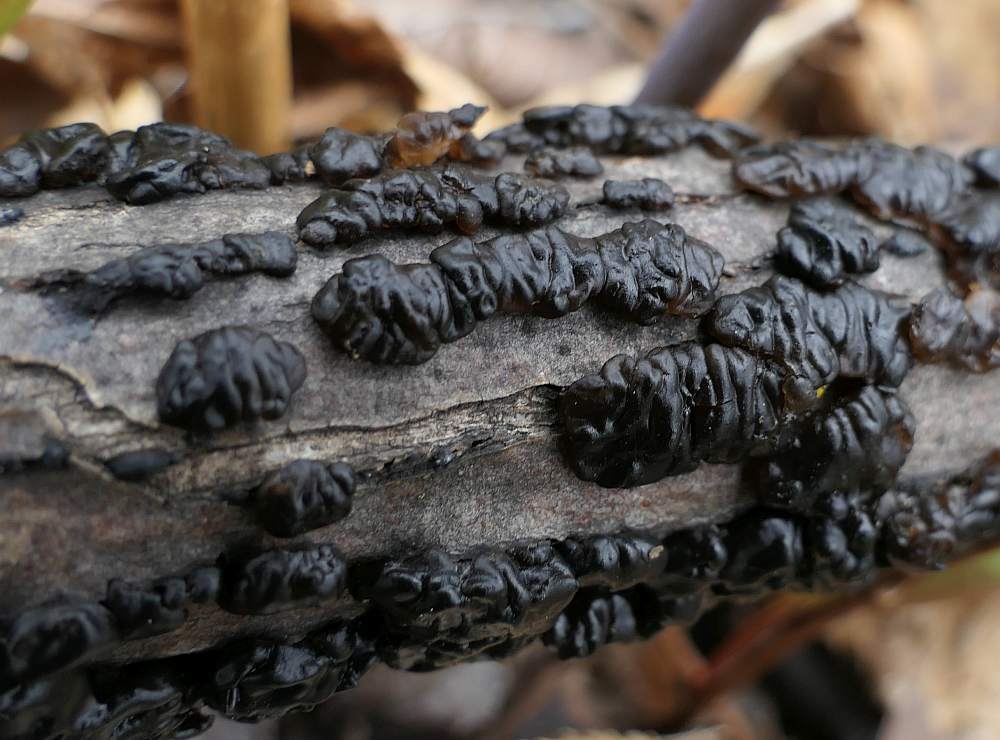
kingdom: Fungi
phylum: Basidiomycota
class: Agaricomycetes
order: Auriculariales
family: Auriculariaceae
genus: Exidia
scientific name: Exidia glandulosa
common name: Witches' butter
